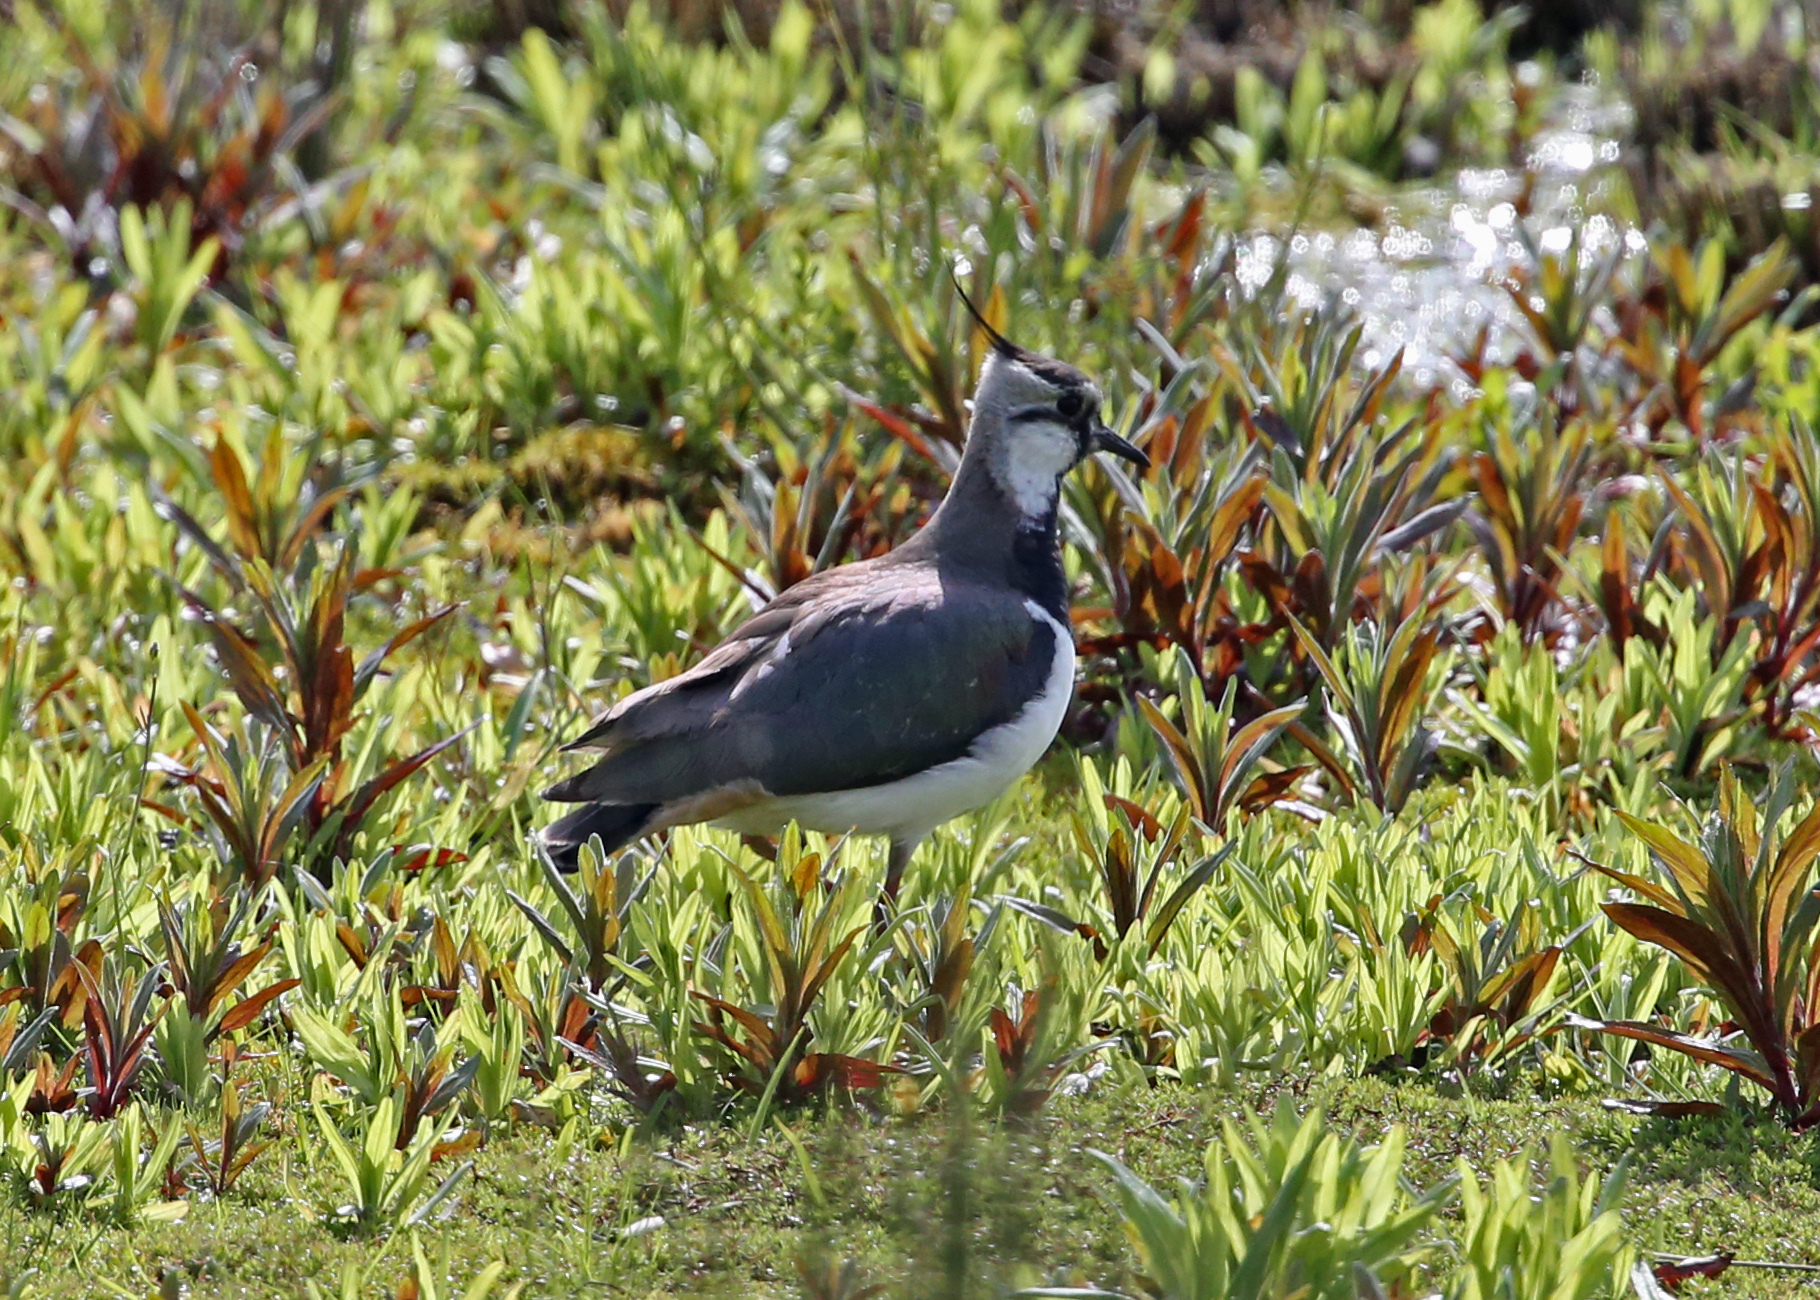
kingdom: Animalia
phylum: Chordata
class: Aves
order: Charadriiformes
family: Charadriidae
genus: Vanellus
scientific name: Vanellus vanellus
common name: Northern lapwing
